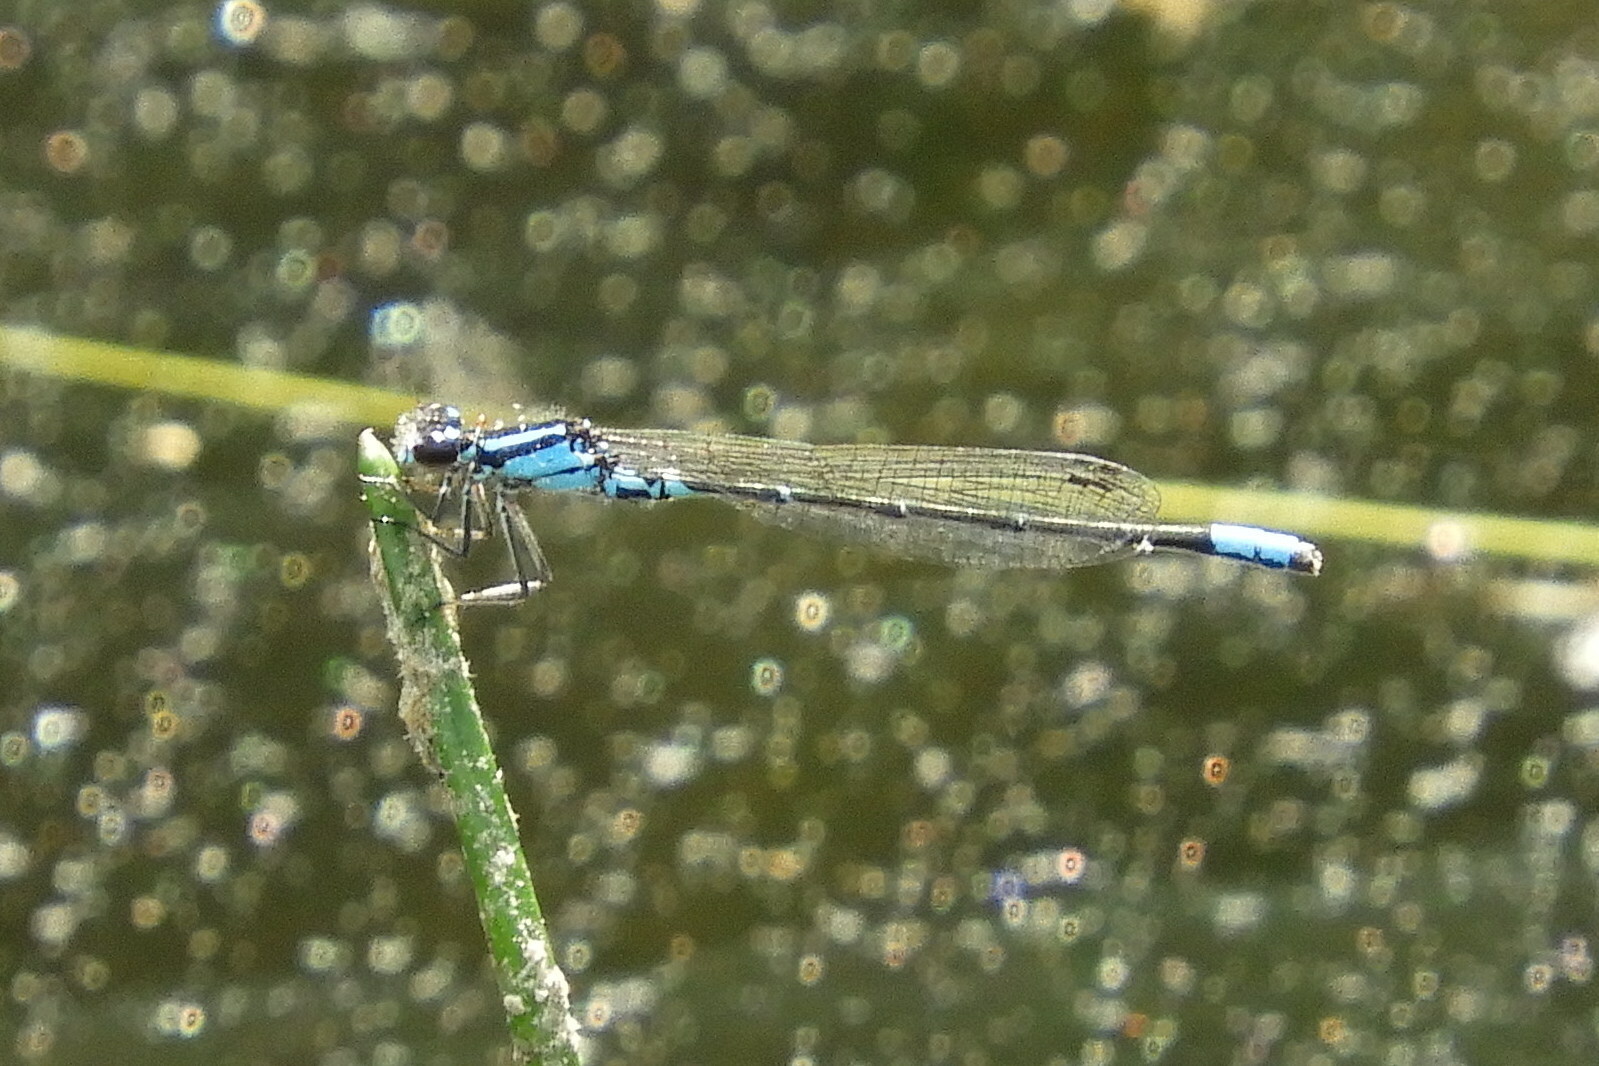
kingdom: Animalia
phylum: Arthropoda
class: Insecta
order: Odonata
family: Coenagrionidae
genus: Enallagma
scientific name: Enallagma geminatum
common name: Skimming bluet
